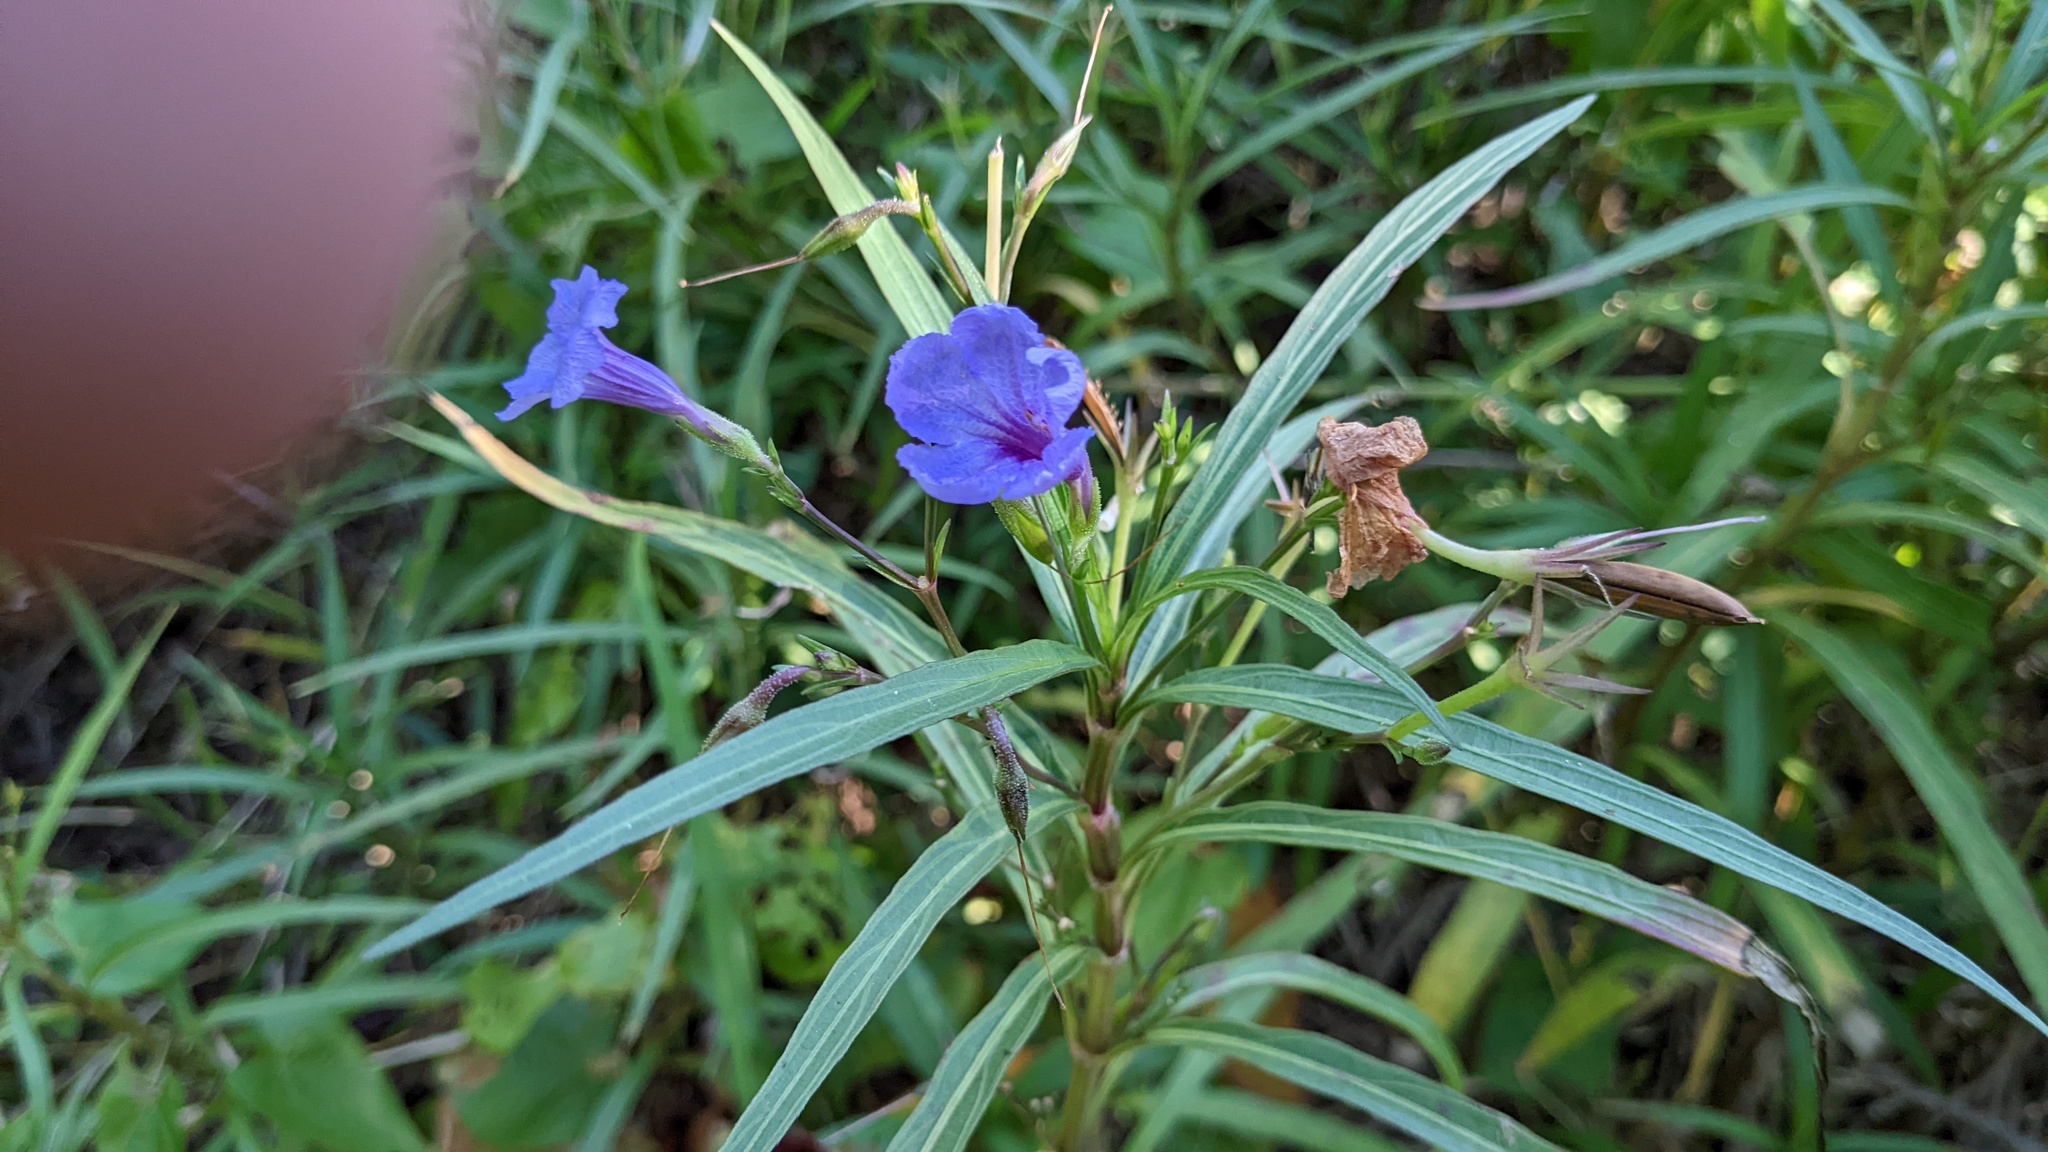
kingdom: Plantae
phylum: Tracheophyta
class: Magnoliopsida
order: Lamiales
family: Acanthaceae
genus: Ruellia
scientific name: Ruellia simplex
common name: Softseed wild petunia
